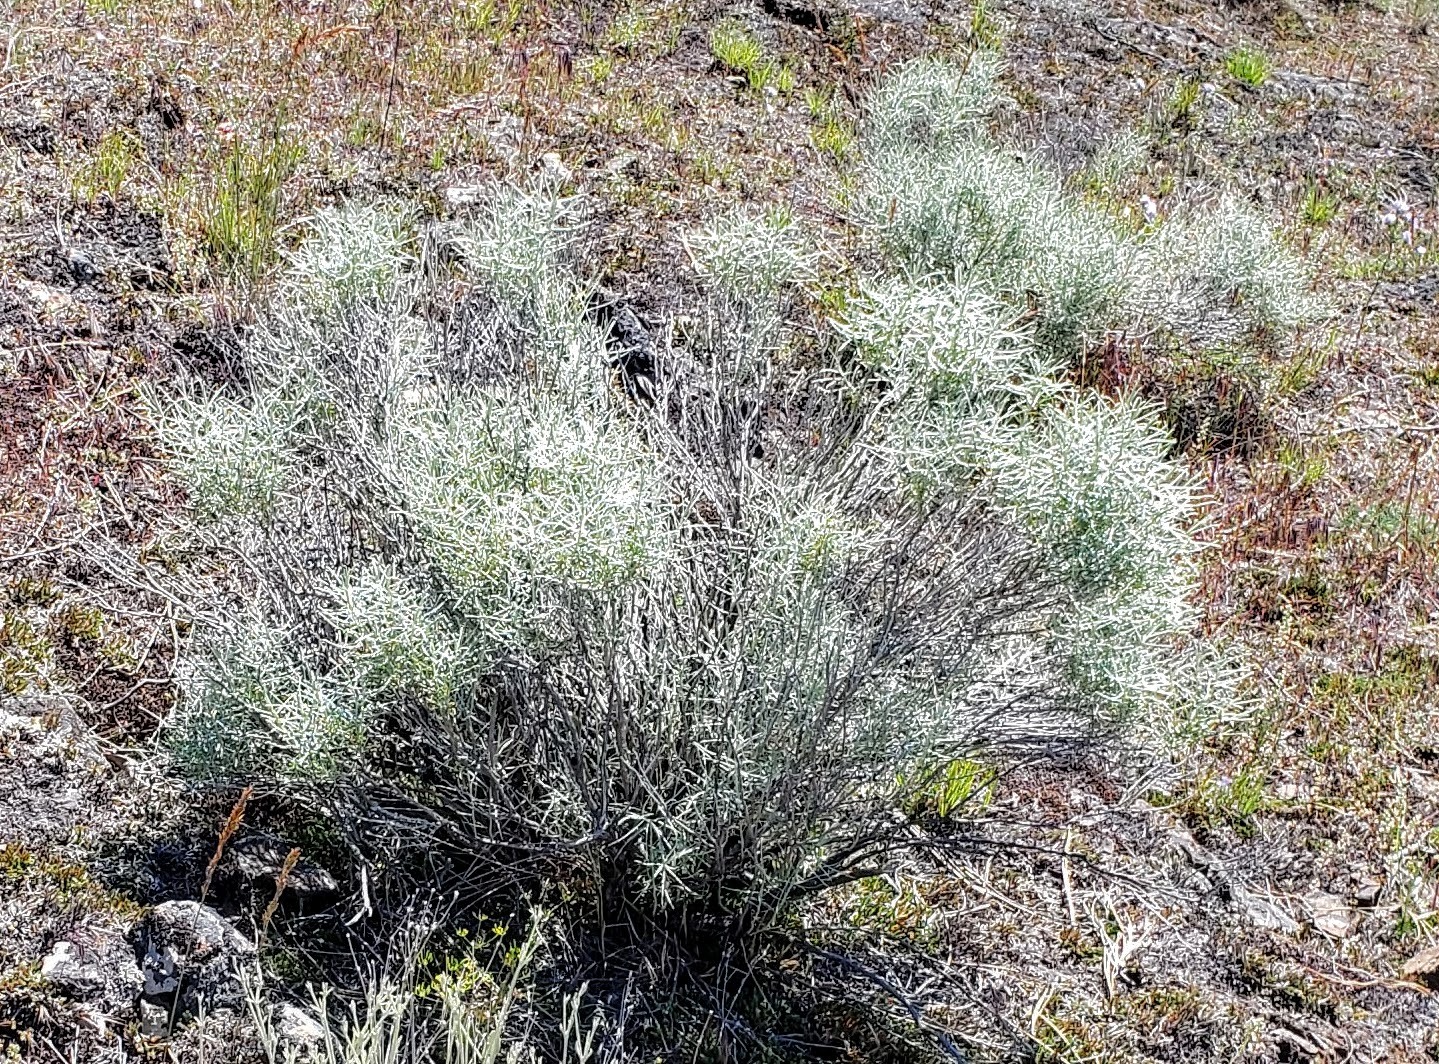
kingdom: Plantae
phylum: Tracheophyta
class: Magnoliopsida
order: Asterales
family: Asteraceae
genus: Ericameria
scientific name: Ericameria nauseosa
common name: Rubber rabbitbrush
